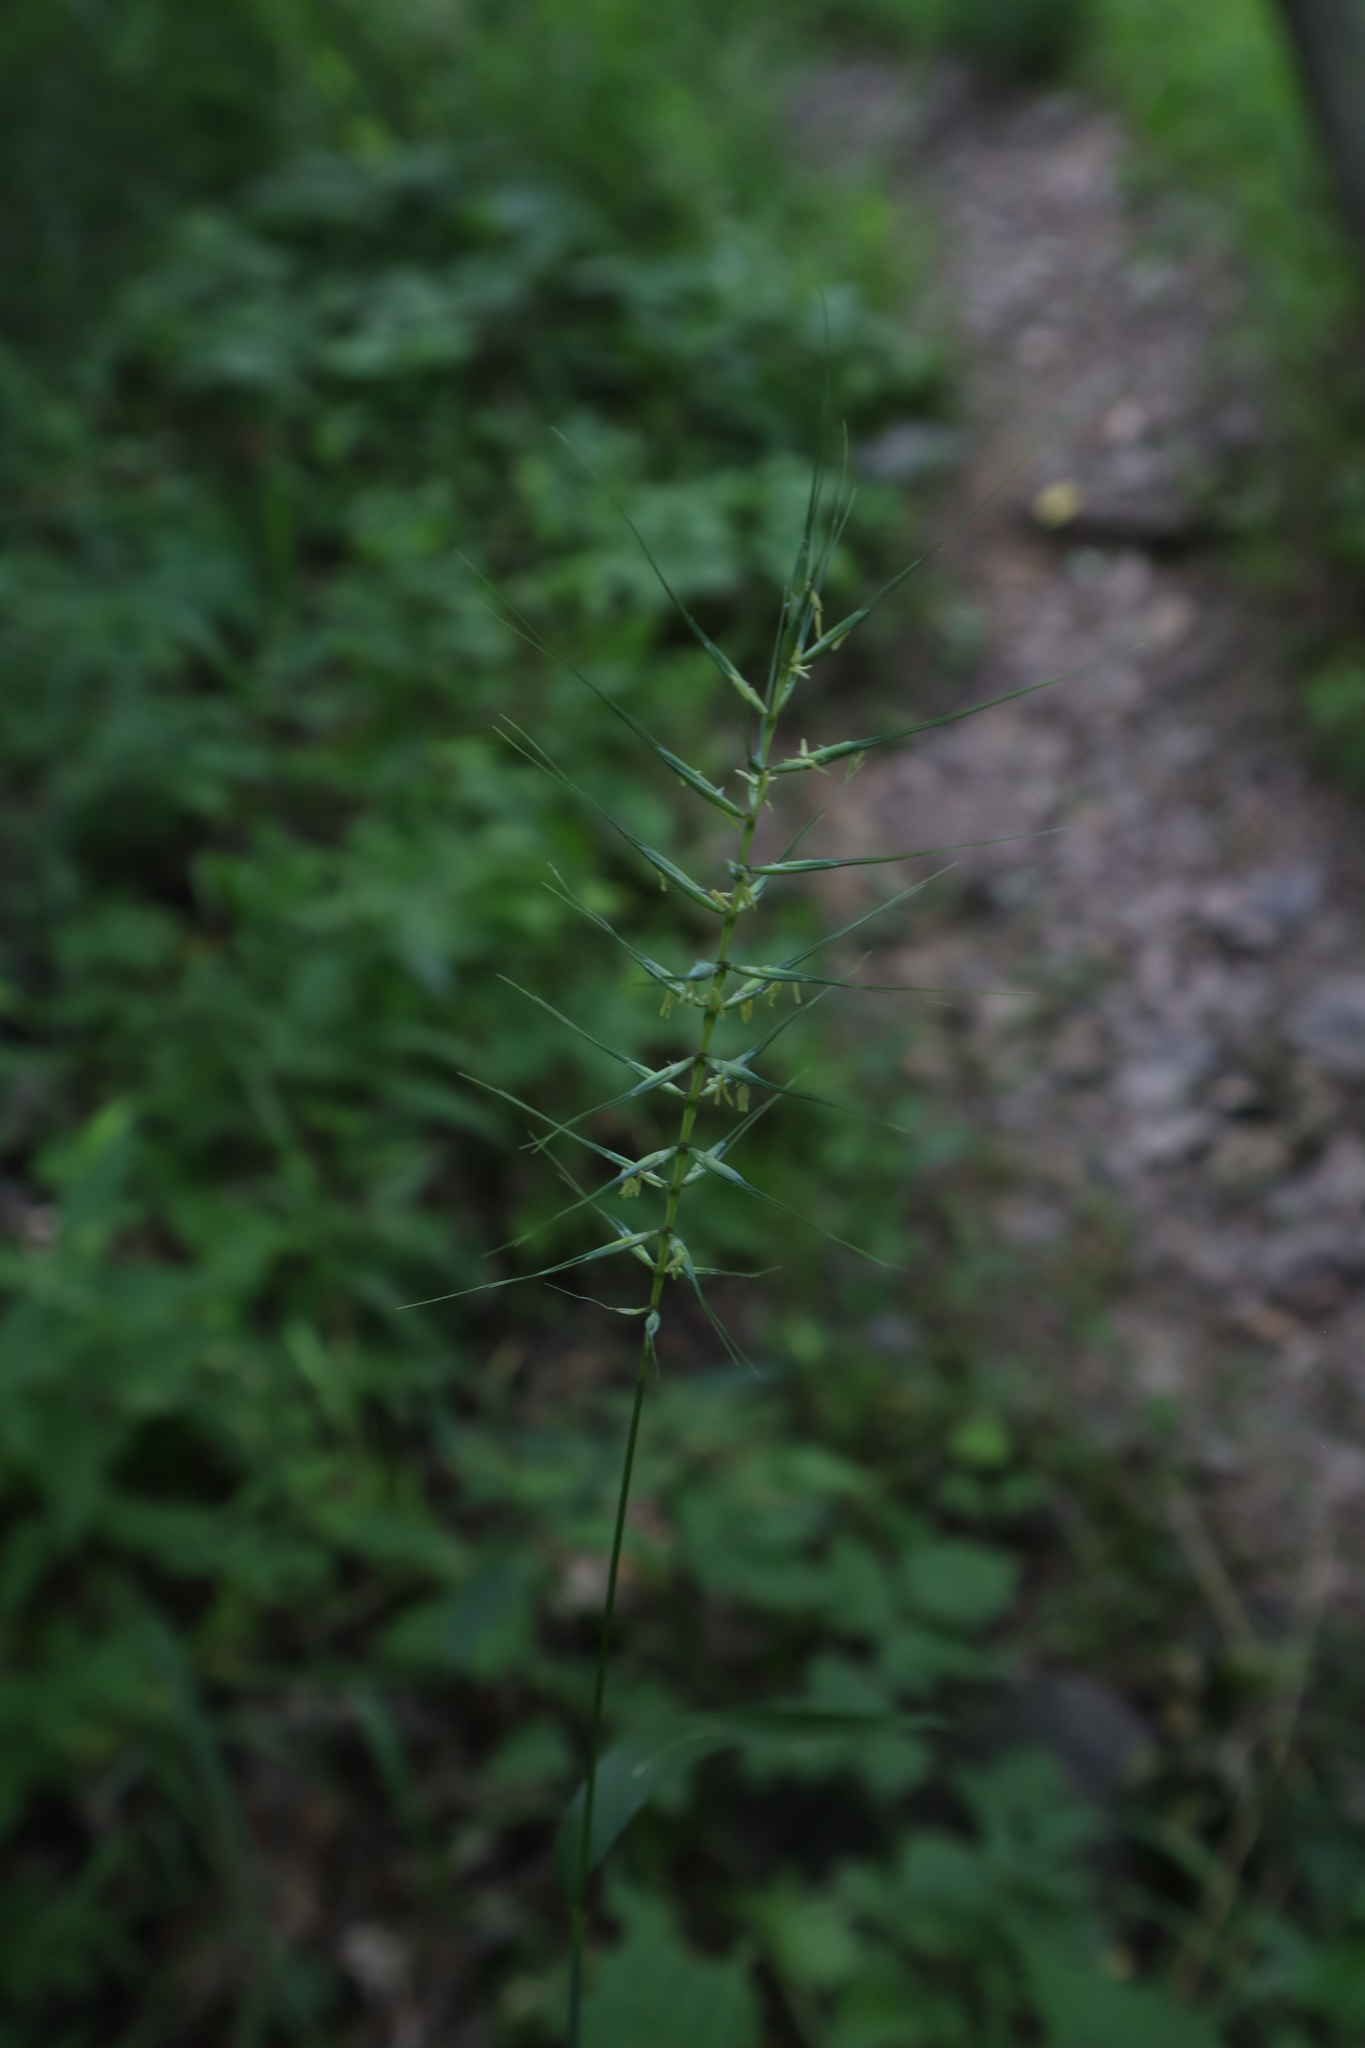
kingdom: Plantae
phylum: Tracheophyta
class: Liliopsida
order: Poales
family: Poaceae
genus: Elymus
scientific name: Elymus hystrix
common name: Bottlebrush grass
